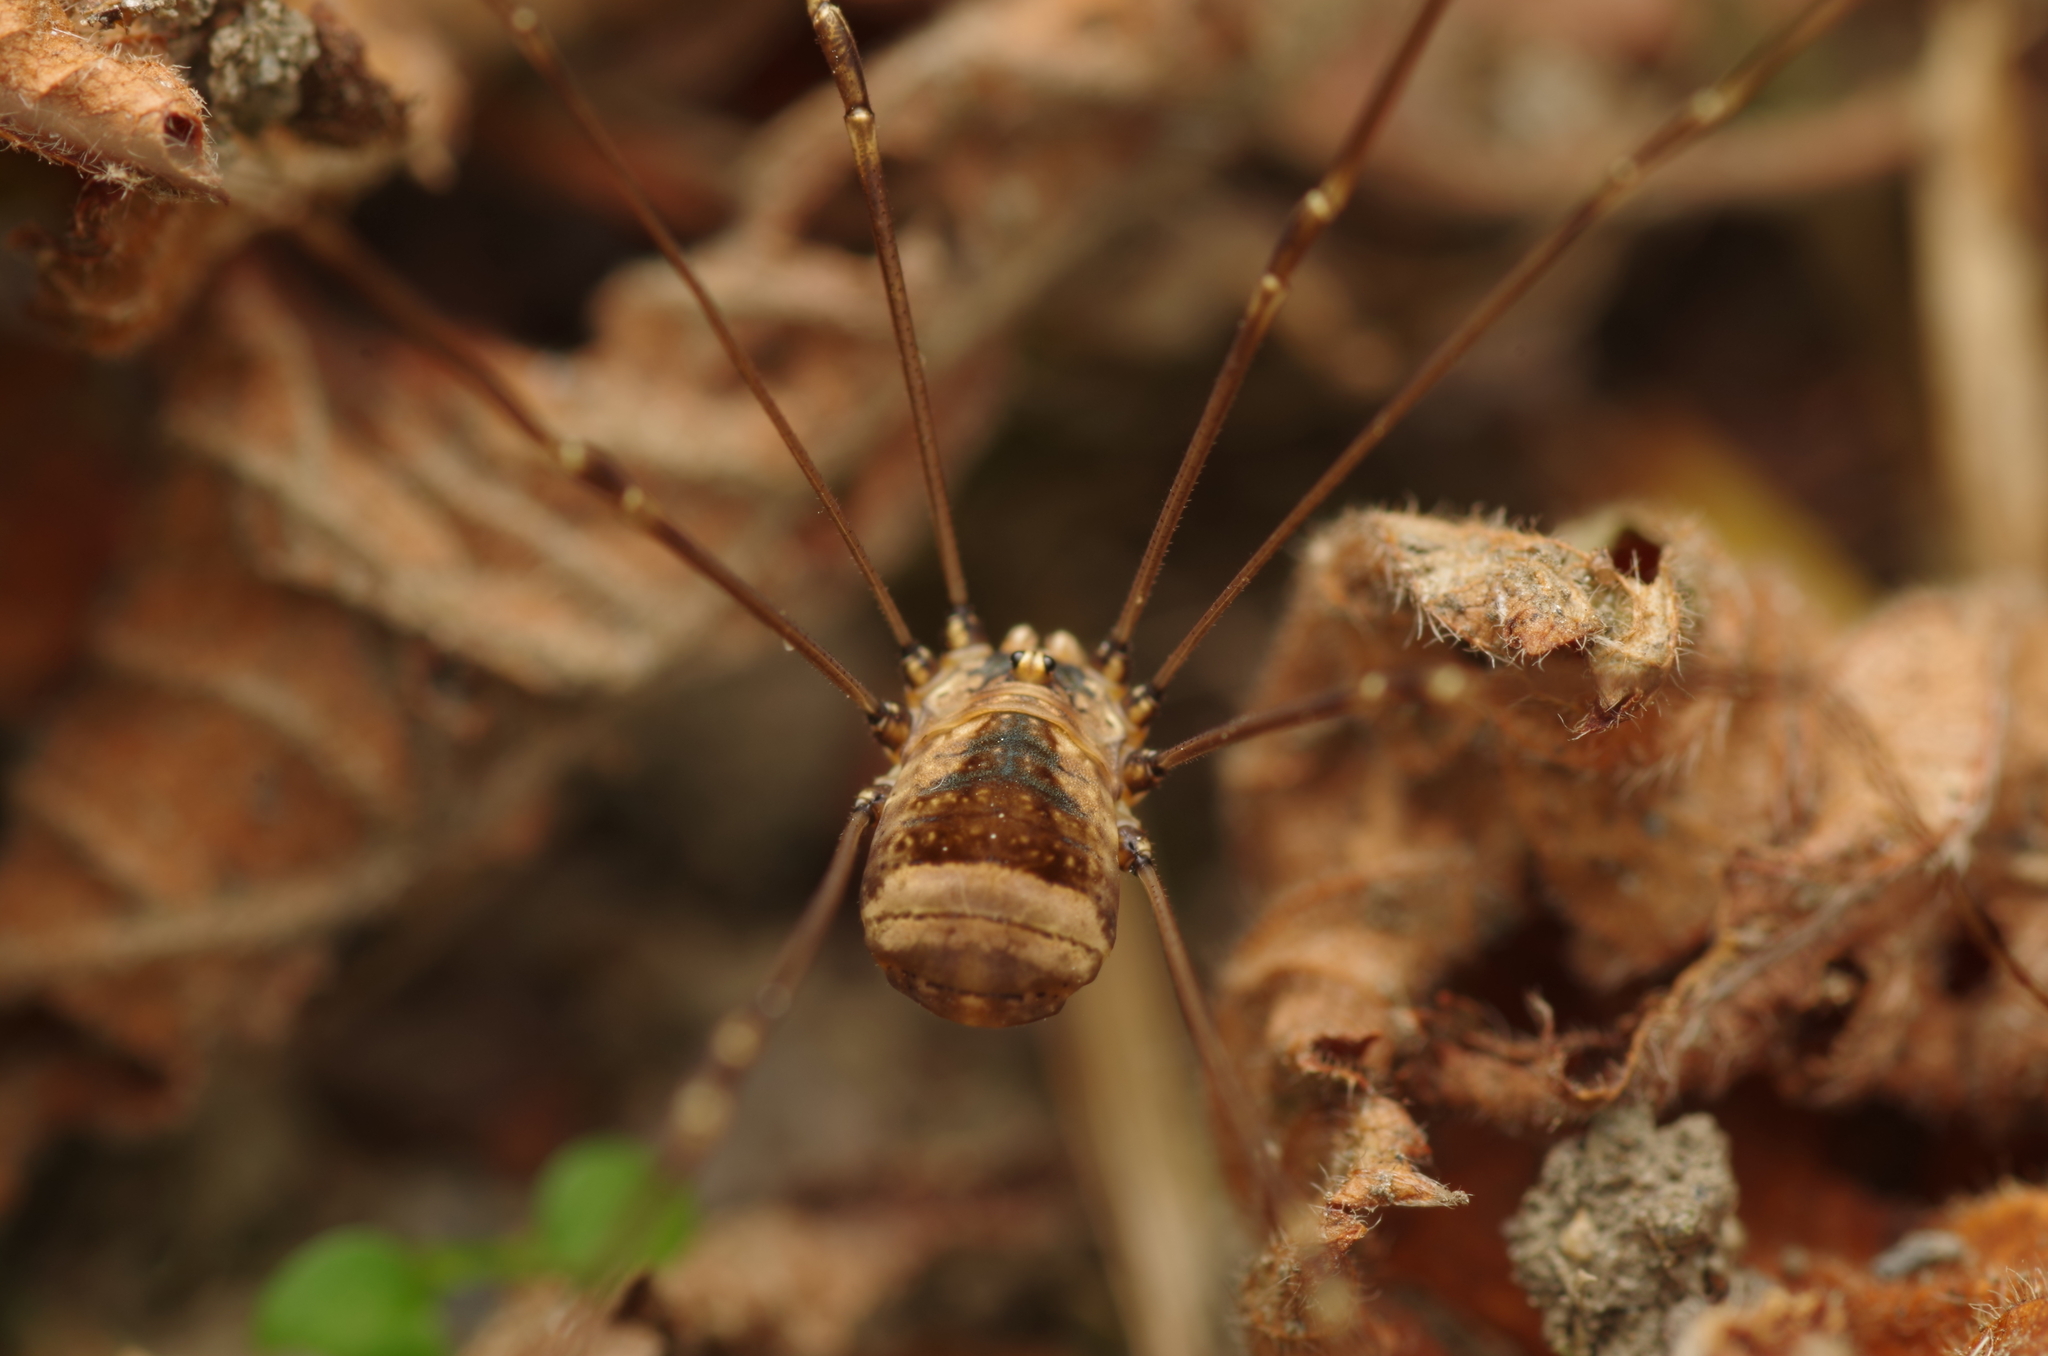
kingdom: Animalia
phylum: Arthropoda
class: Arachnida
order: Opiliones
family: Sclerosomatidae
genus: Leiobunum
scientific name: Leiobunum blackwalli
